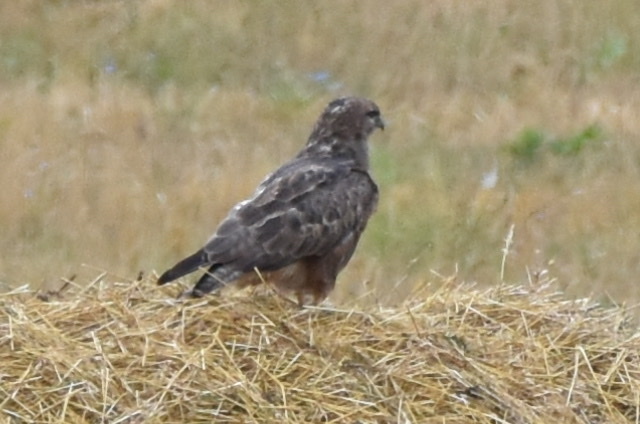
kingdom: Animalia
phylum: Chordata
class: Aves
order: Accipitriformes
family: Accipitridae
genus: Buteo
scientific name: Buteo buteo
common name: Common buzzard
